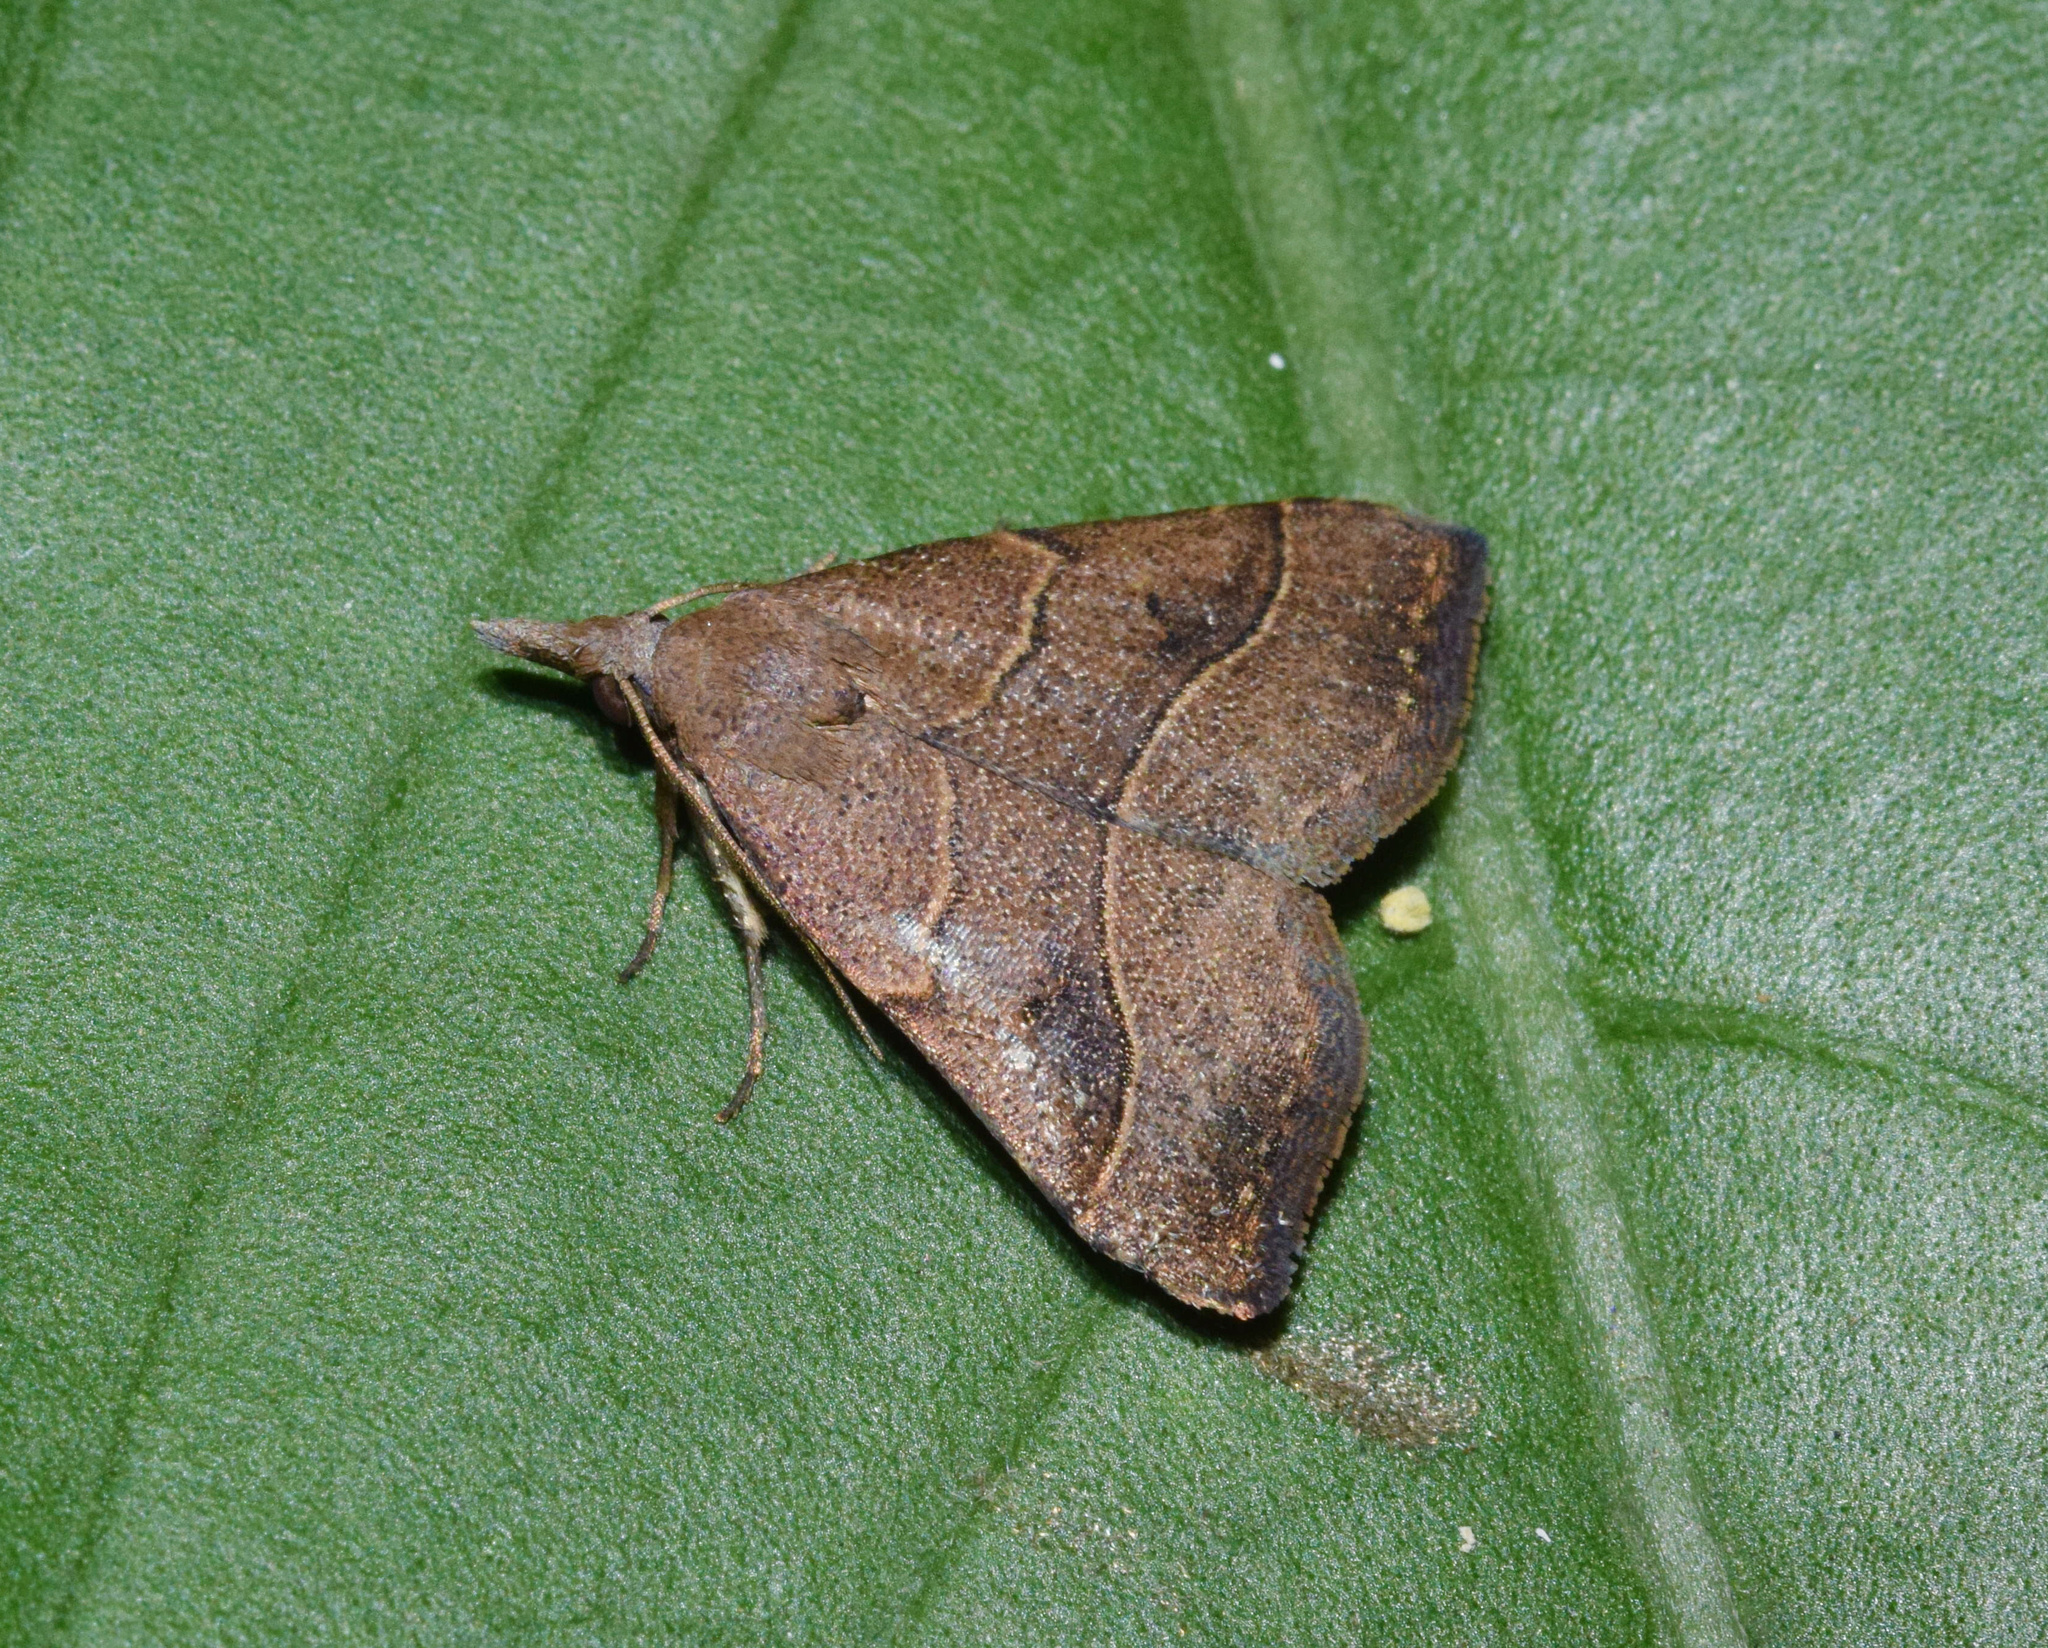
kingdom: Animalia
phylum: Arthropoda
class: Insecta
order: Lepidoptera
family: Erebidae
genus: Bertula
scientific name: Bertula inconspicua
